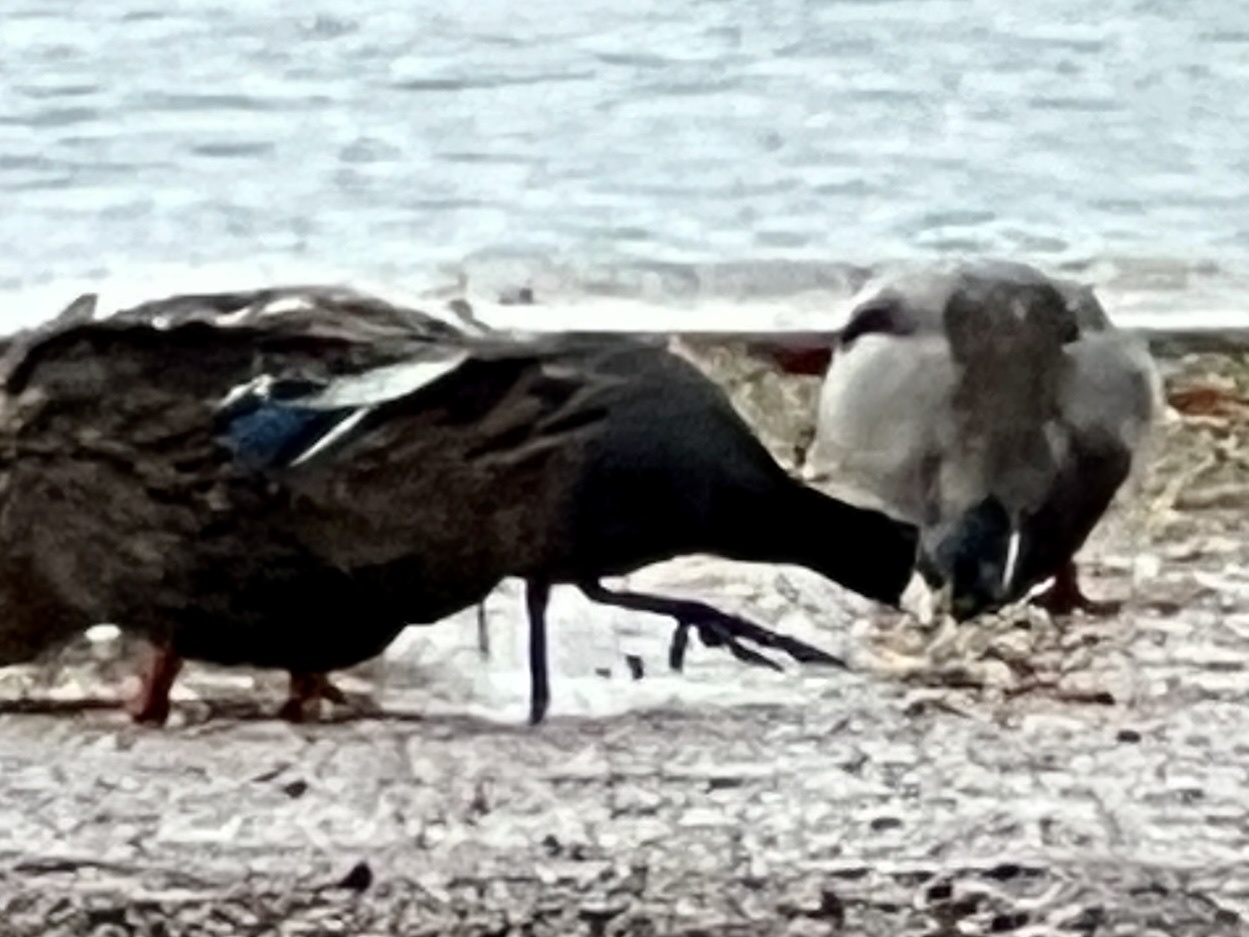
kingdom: Animalia
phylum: Chordata
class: Aves
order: Gruiformes
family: Rallidae
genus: Fulica
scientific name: Fulica americana
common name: American coot
